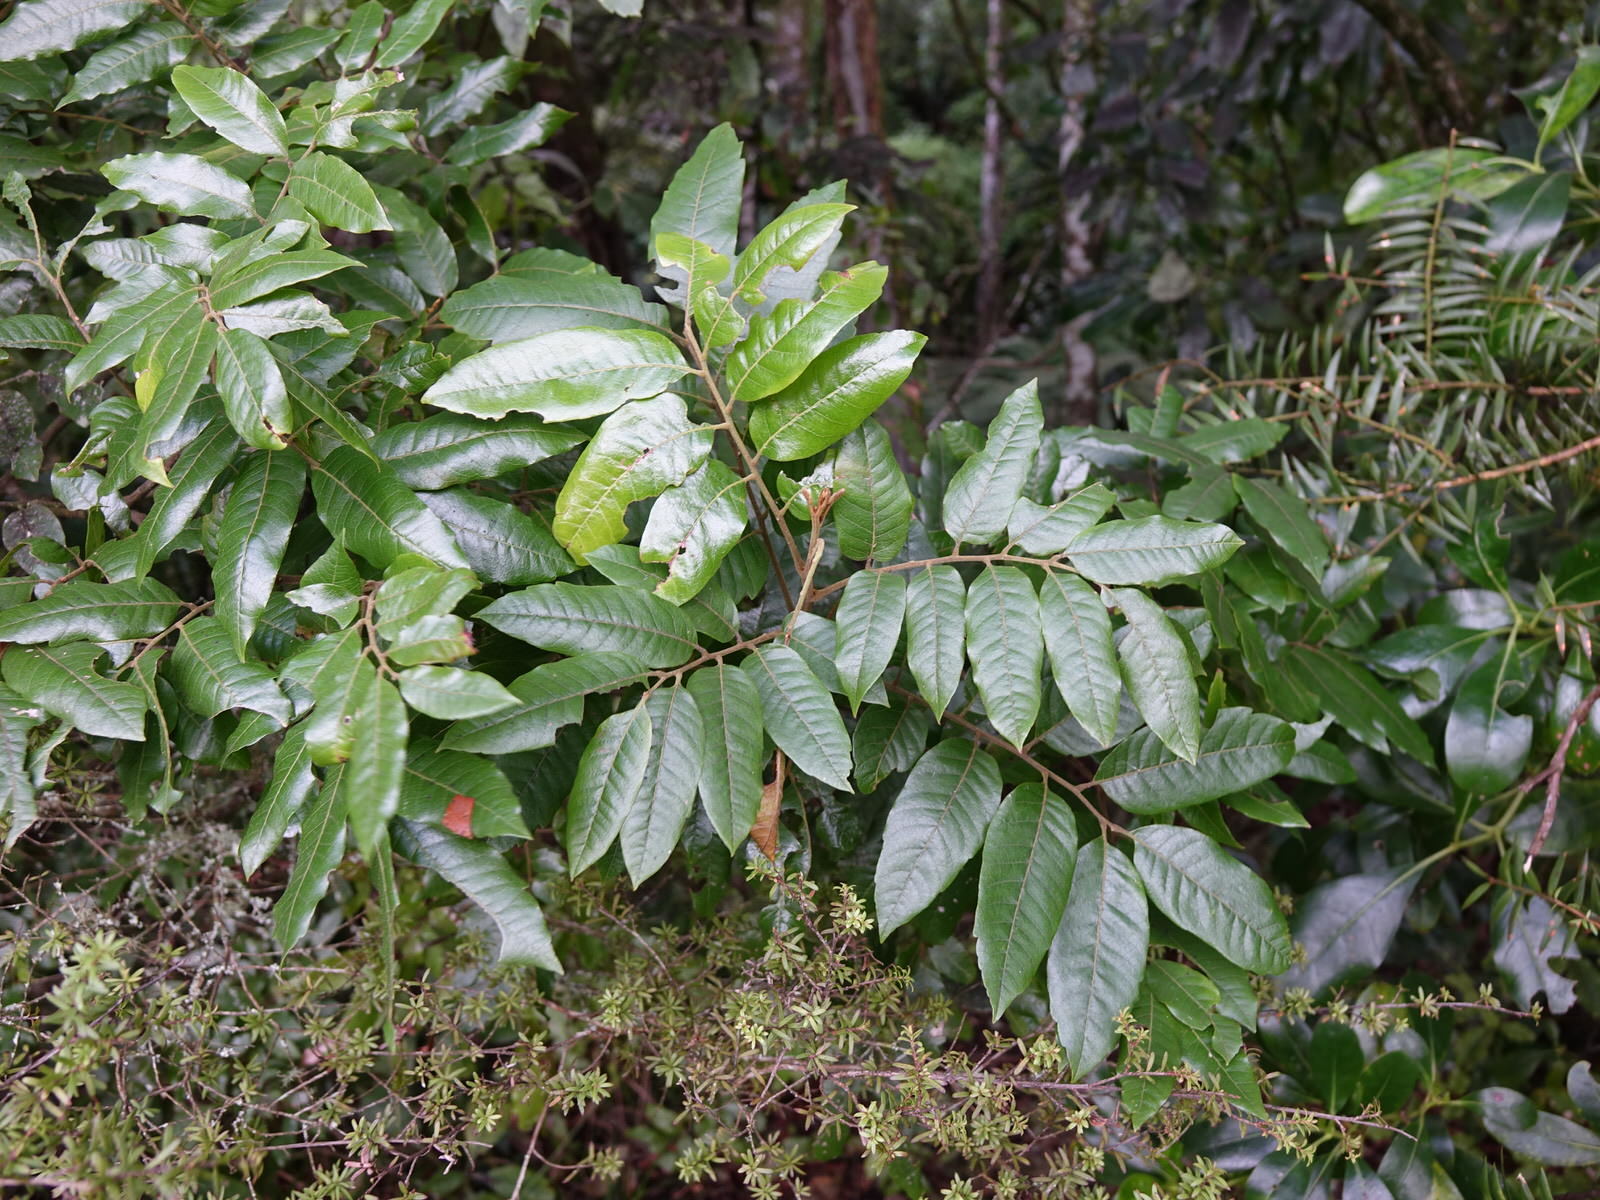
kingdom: Plantae
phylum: Tracheophyta
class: Magnoliopsida
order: Sapindales
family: Sapindaceae
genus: Alectryon
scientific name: Alectryon excelsus
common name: Three kings titoki
